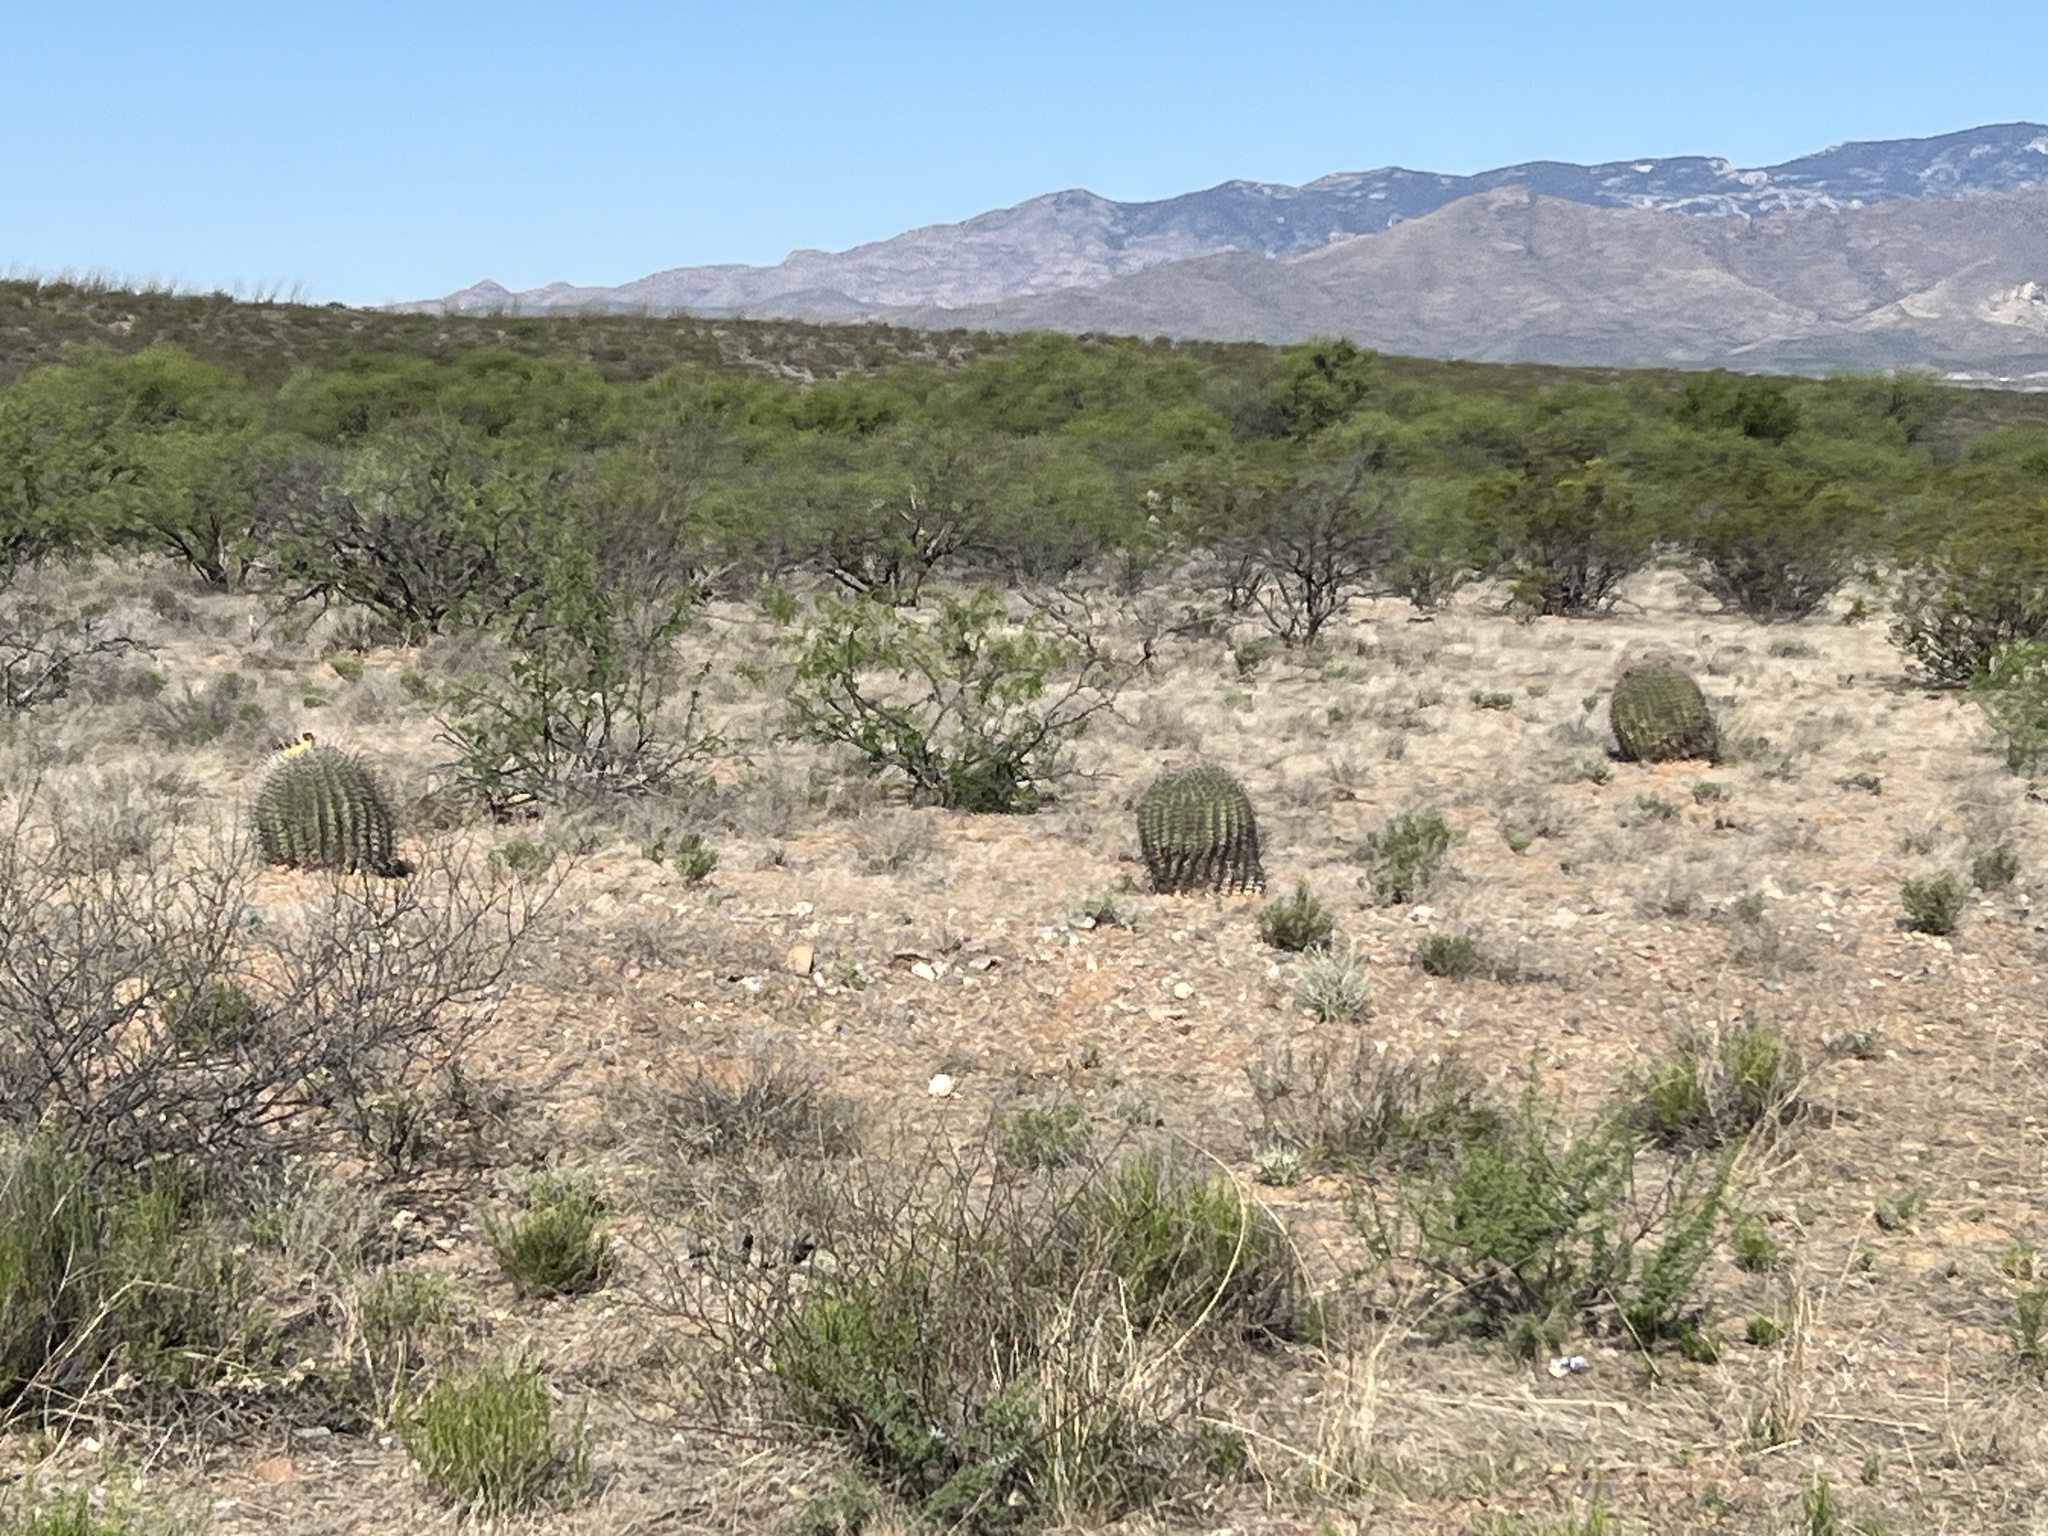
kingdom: Plantae
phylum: Tracheophyta
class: Magnoliopsida
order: Caryophyllales
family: Cactaceae
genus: Ferocactus
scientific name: Ferocactus wislizeni
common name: Candy barrel cactus
